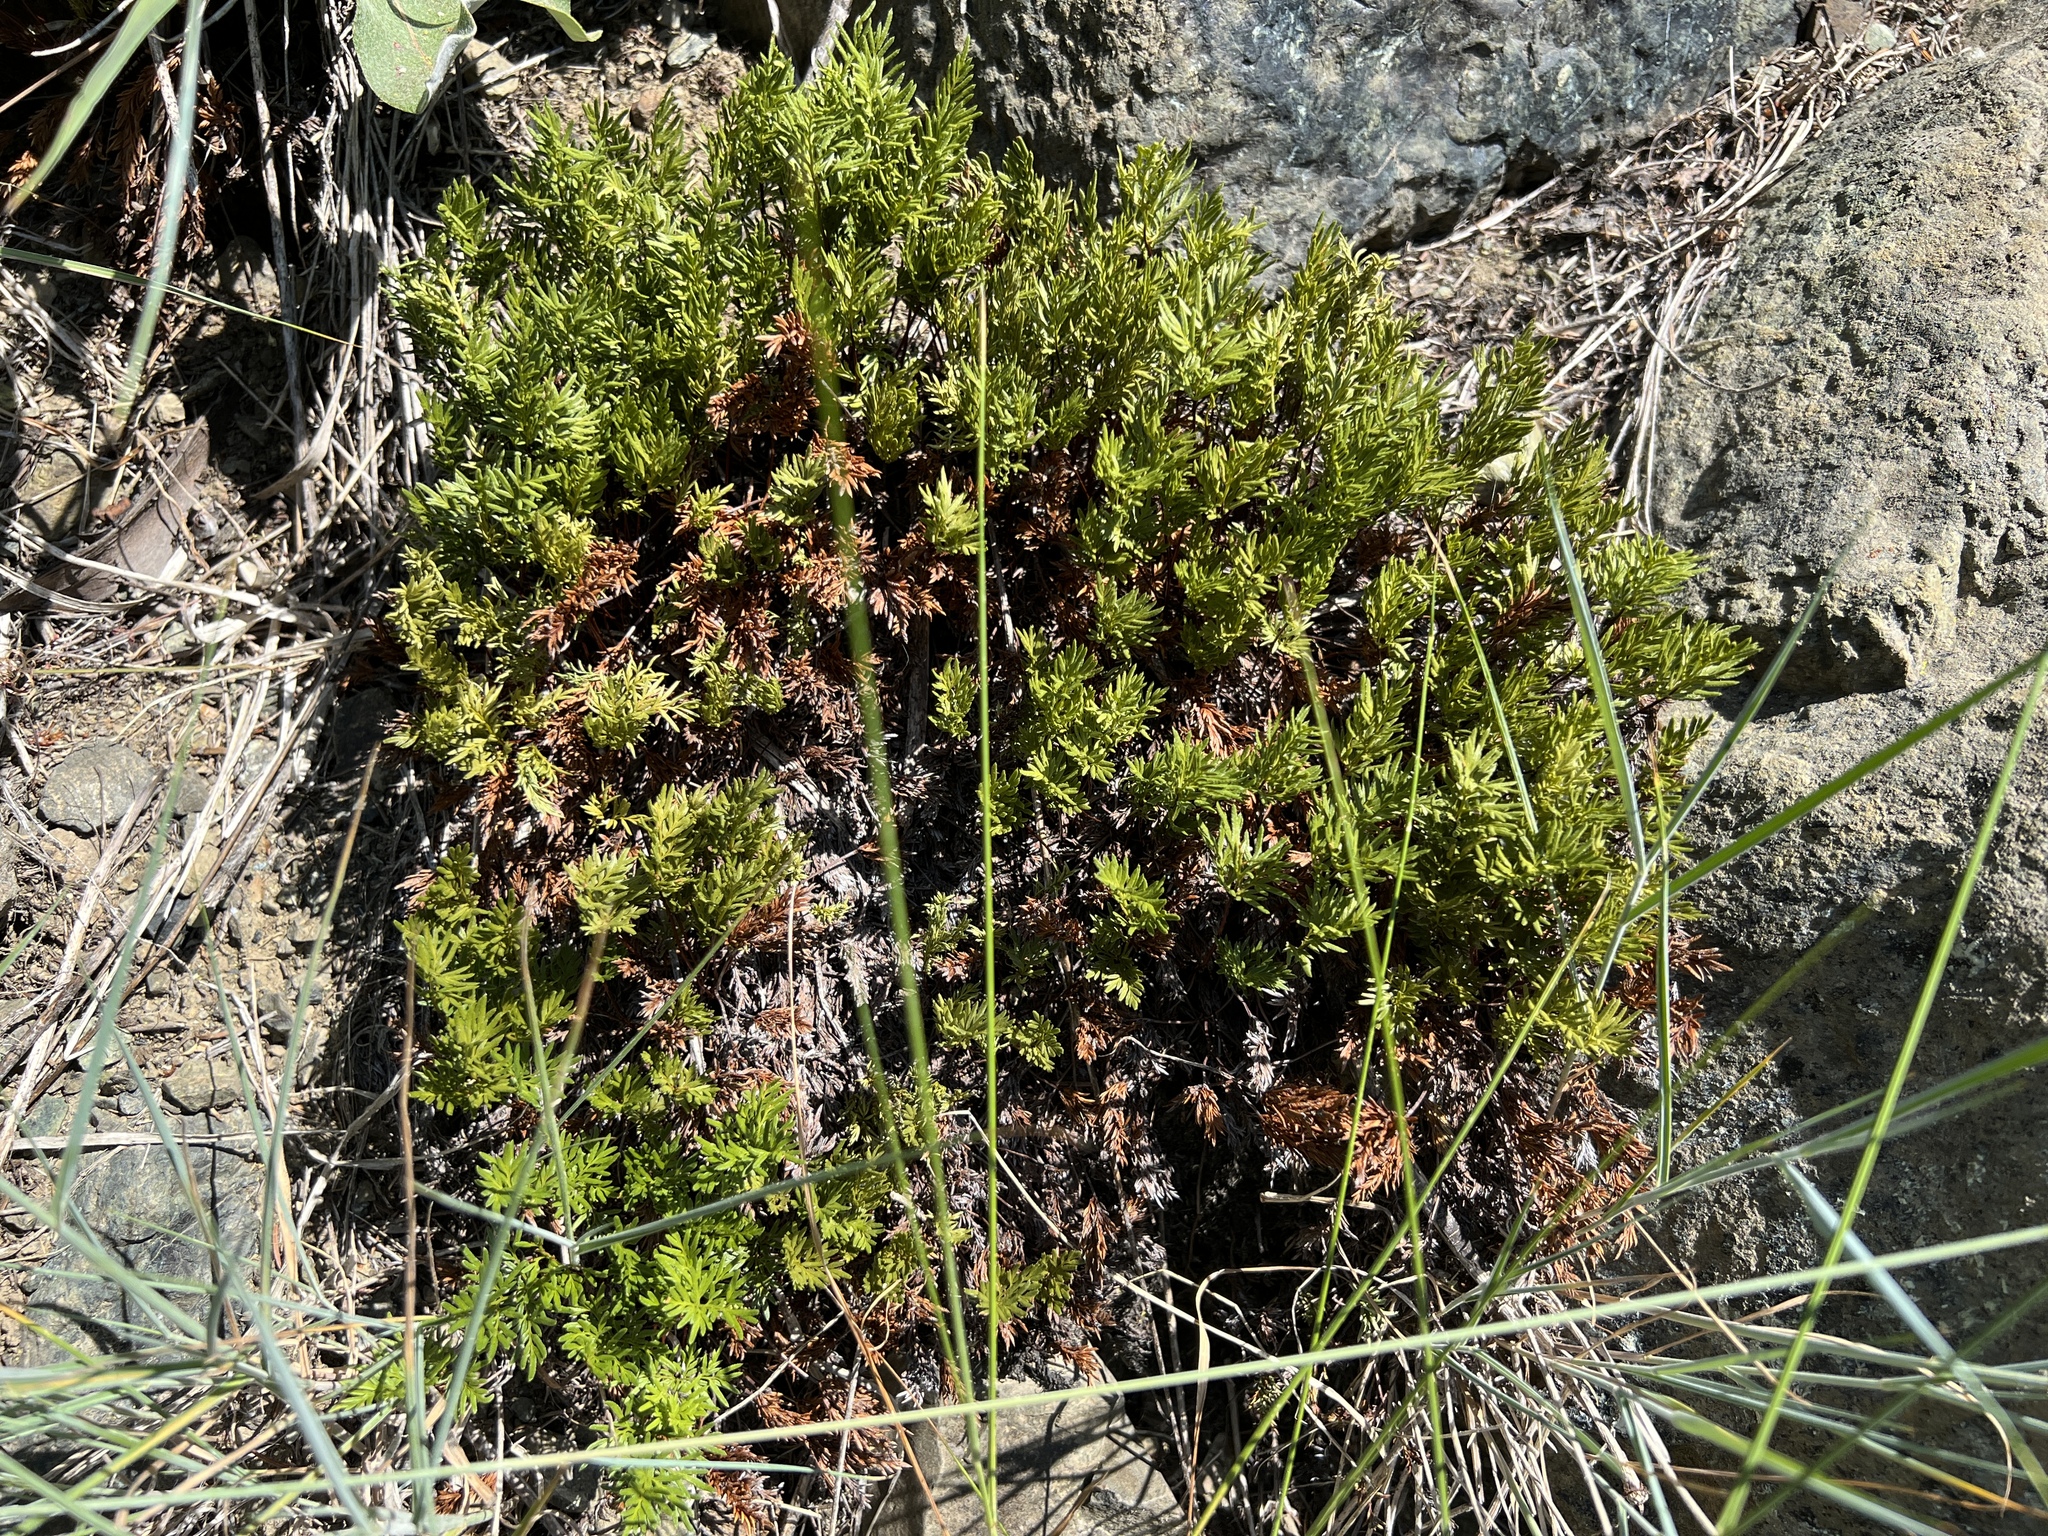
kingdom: Plantae
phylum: Tracheophyta
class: Polypodiopsida
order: Polypodiales
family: Pteridaceae
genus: Aspidotis
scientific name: Aspidotis densa
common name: Indian's dream
